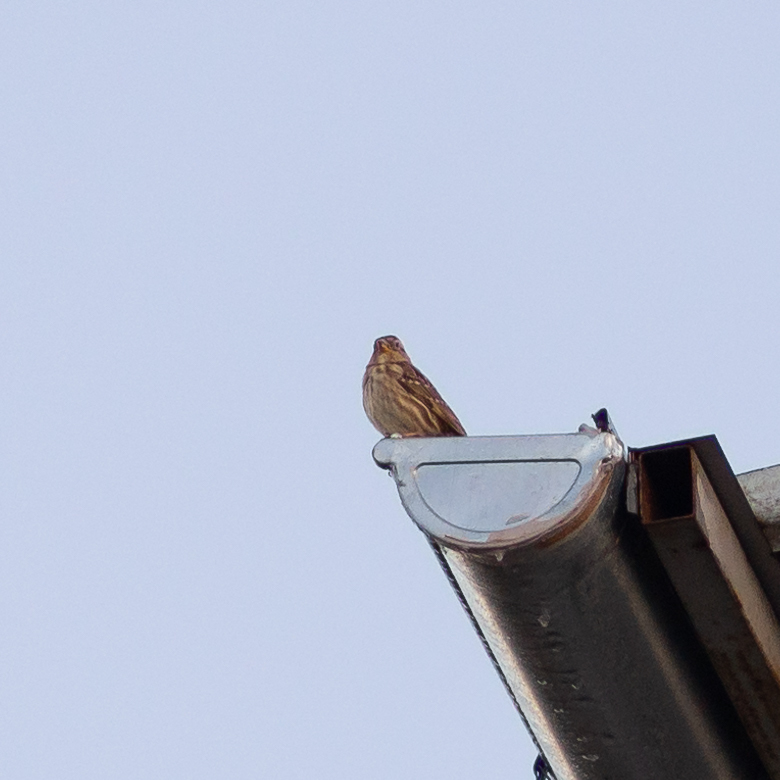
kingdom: Animalia
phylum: Chordata
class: Aves
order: Passeriformes
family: Passeridae
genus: Petronia
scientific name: Petronia petronia
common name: Rock sparrow
